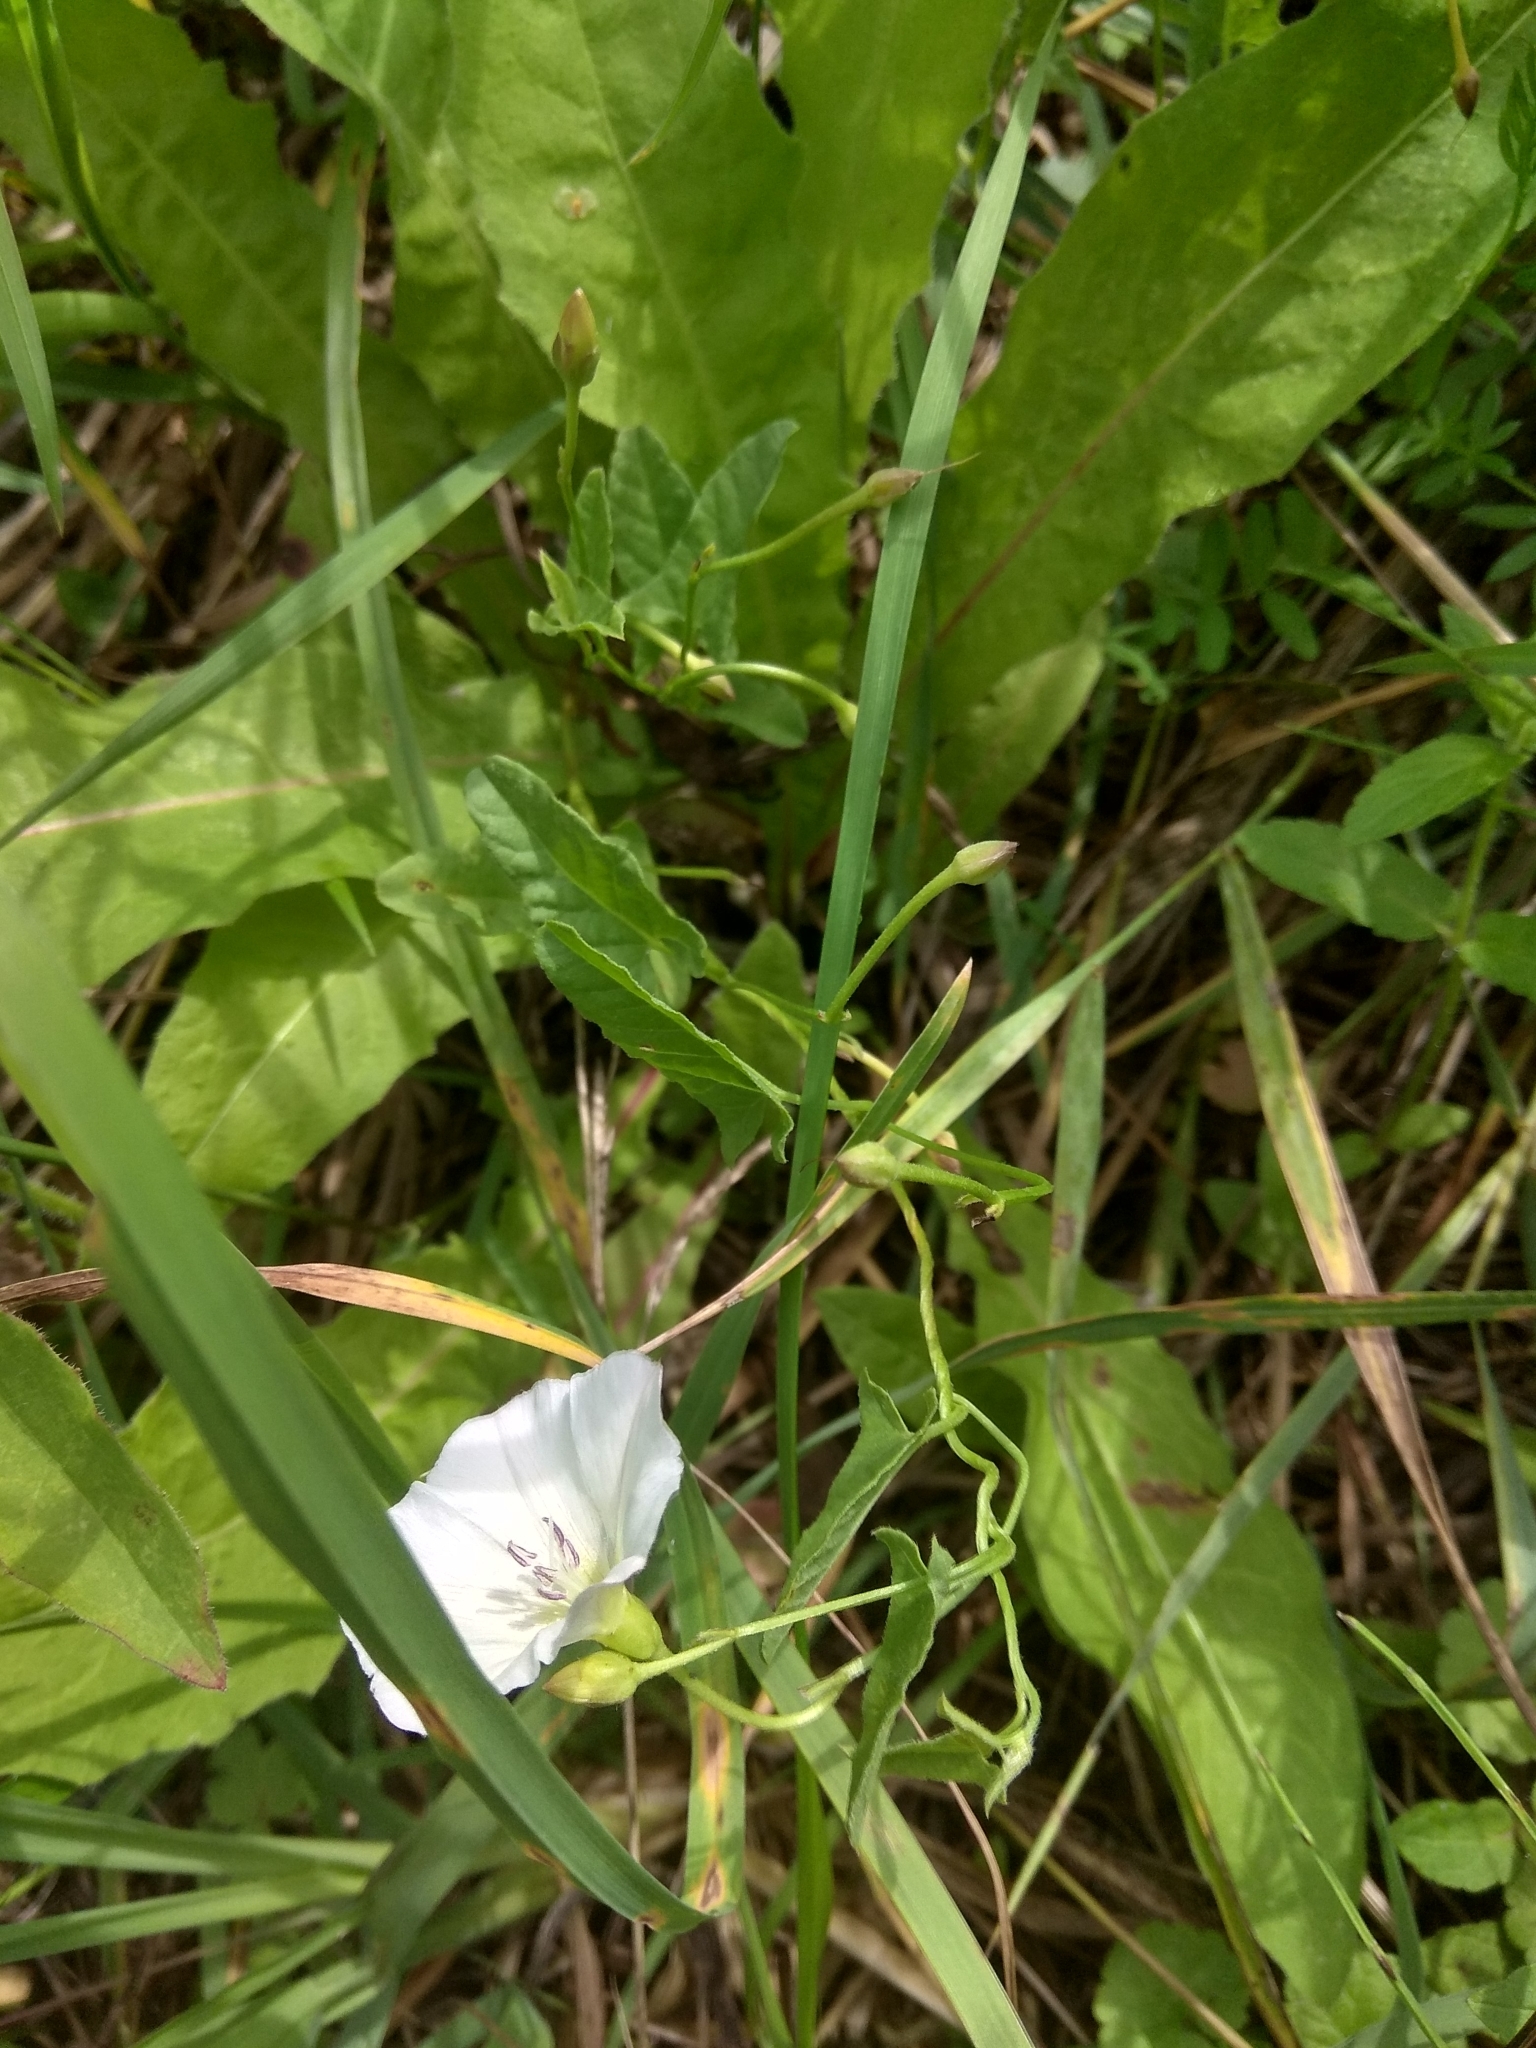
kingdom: Plantae
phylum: Tracheophyta
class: Magnoliopsida
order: Solanales
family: Convolvulaceae
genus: Convolvulus
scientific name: Convolvulus arvensis
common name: Field bindweed
